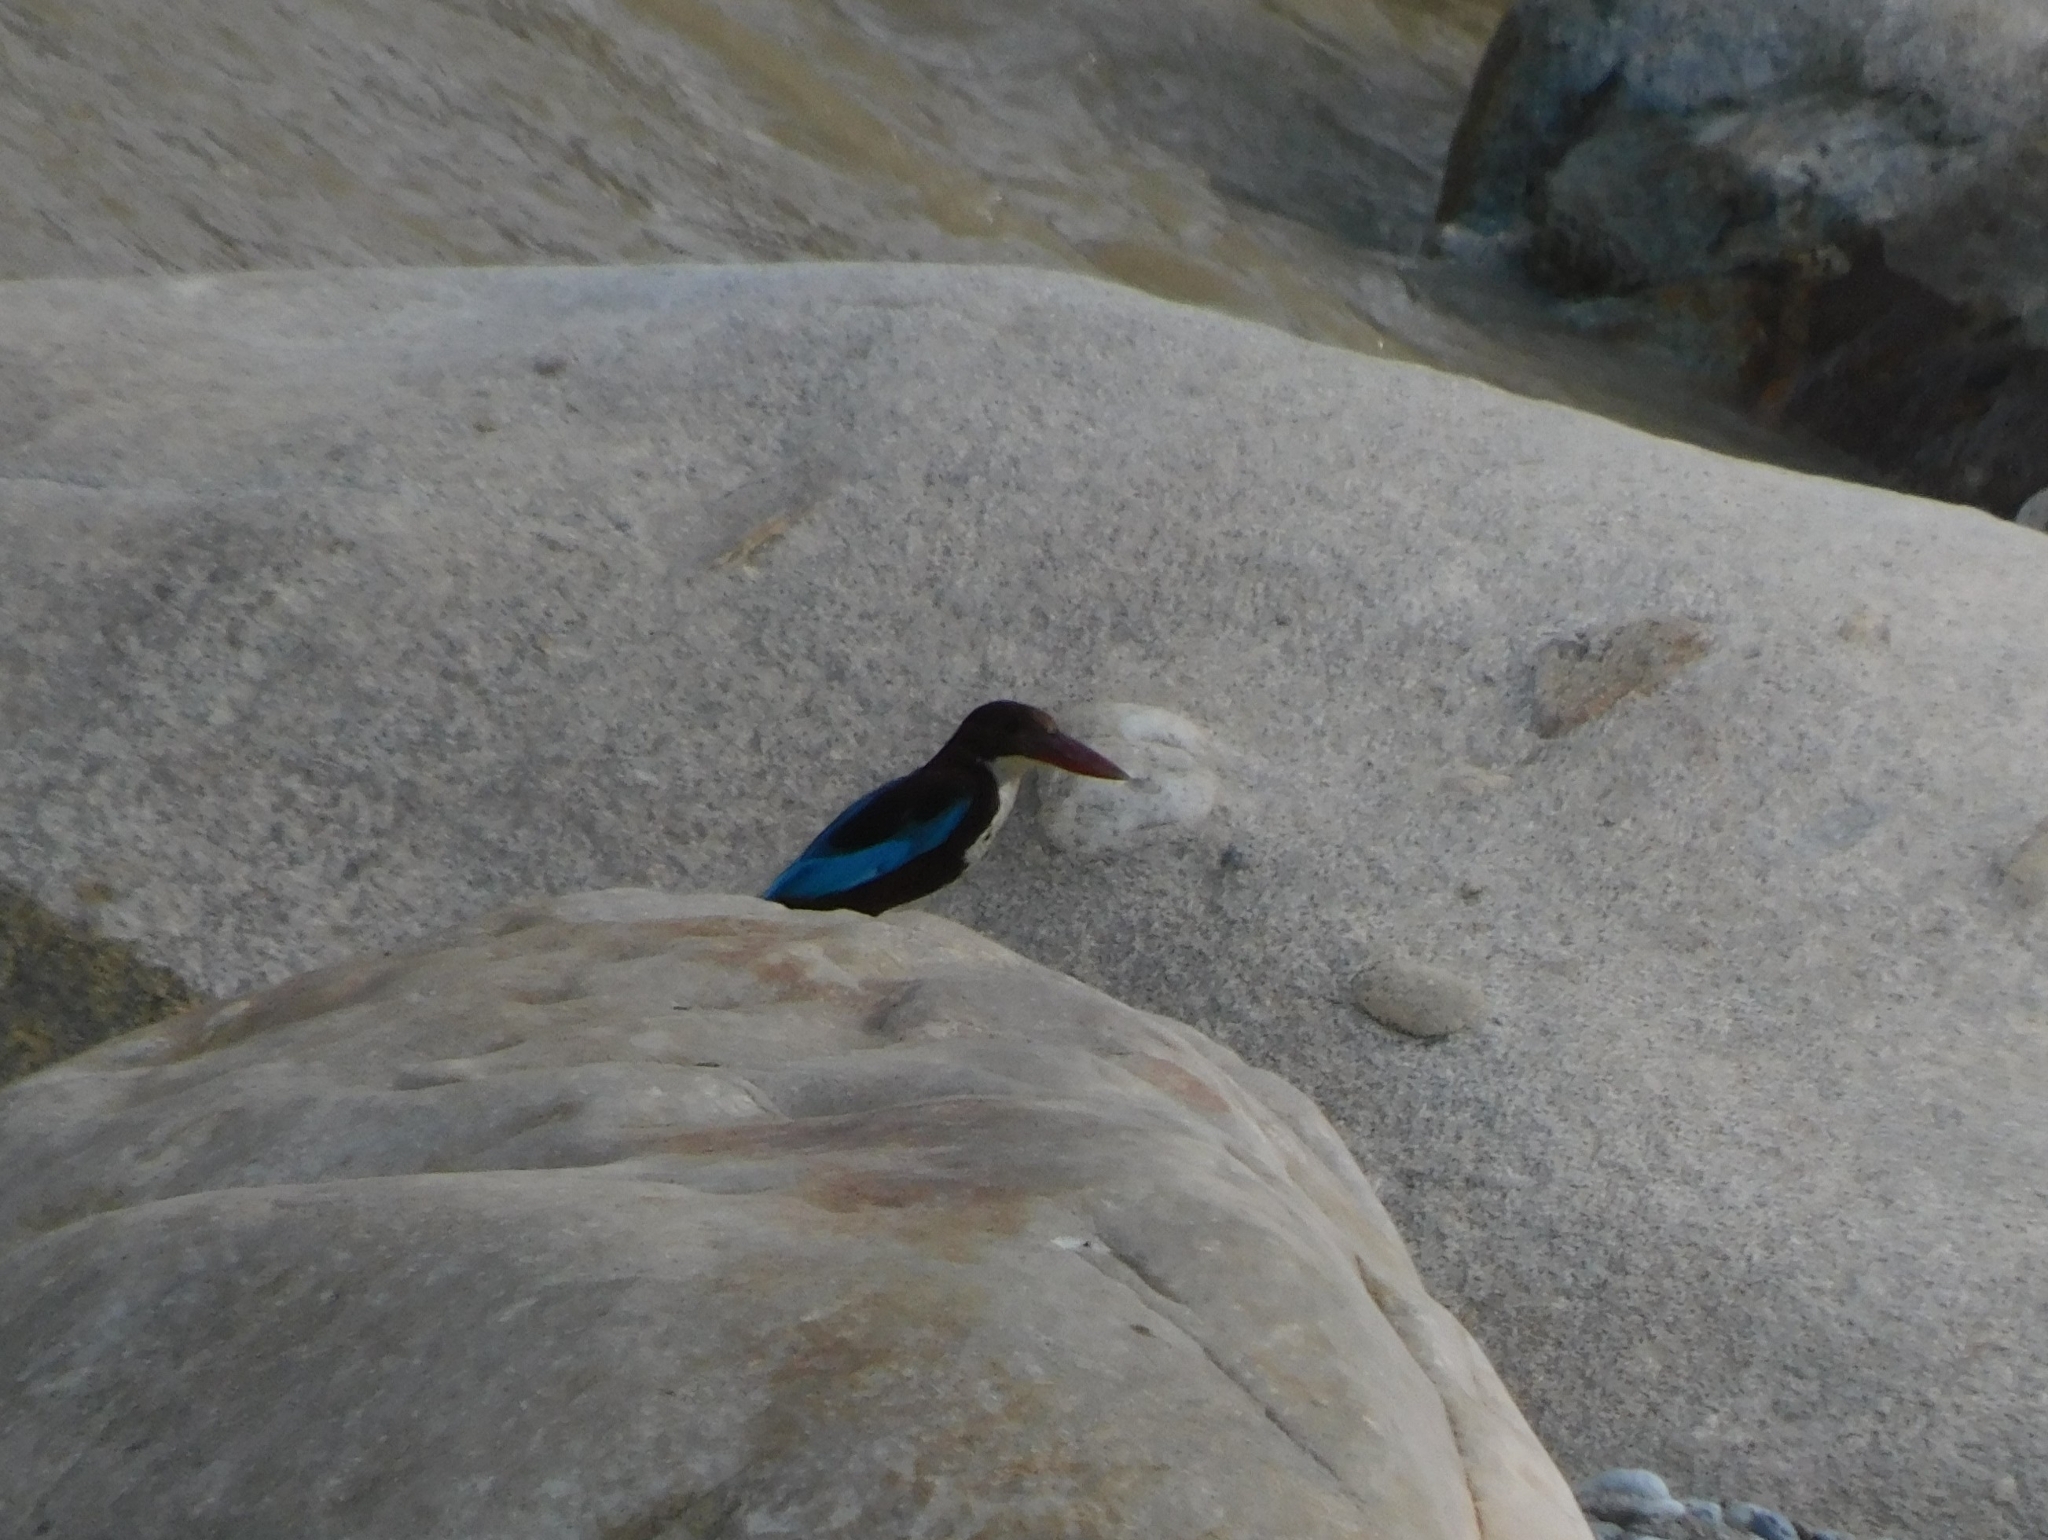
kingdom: Animalia
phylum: Chordata
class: Aves
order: Coraciiformes
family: Alcedinidae
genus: Halcyon
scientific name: Halcyon smyrnensis
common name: White-throated kingfisher
